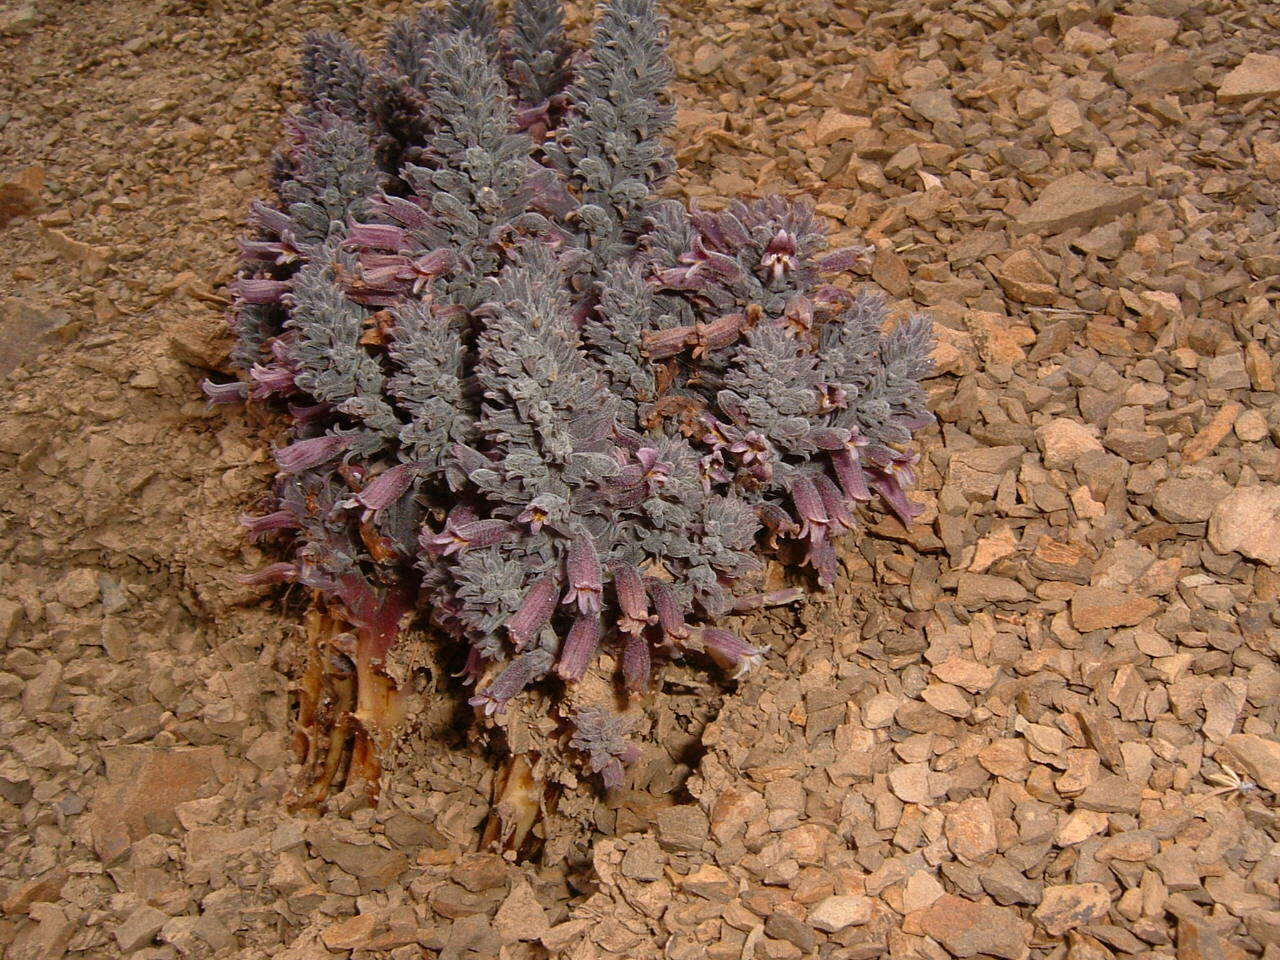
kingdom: Plantae
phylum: Tracheophyta
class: Magnoliopsida
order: Lamiales
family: Orobanchaceae
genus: Aphyllon
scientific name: Aphyllon tuberosum
